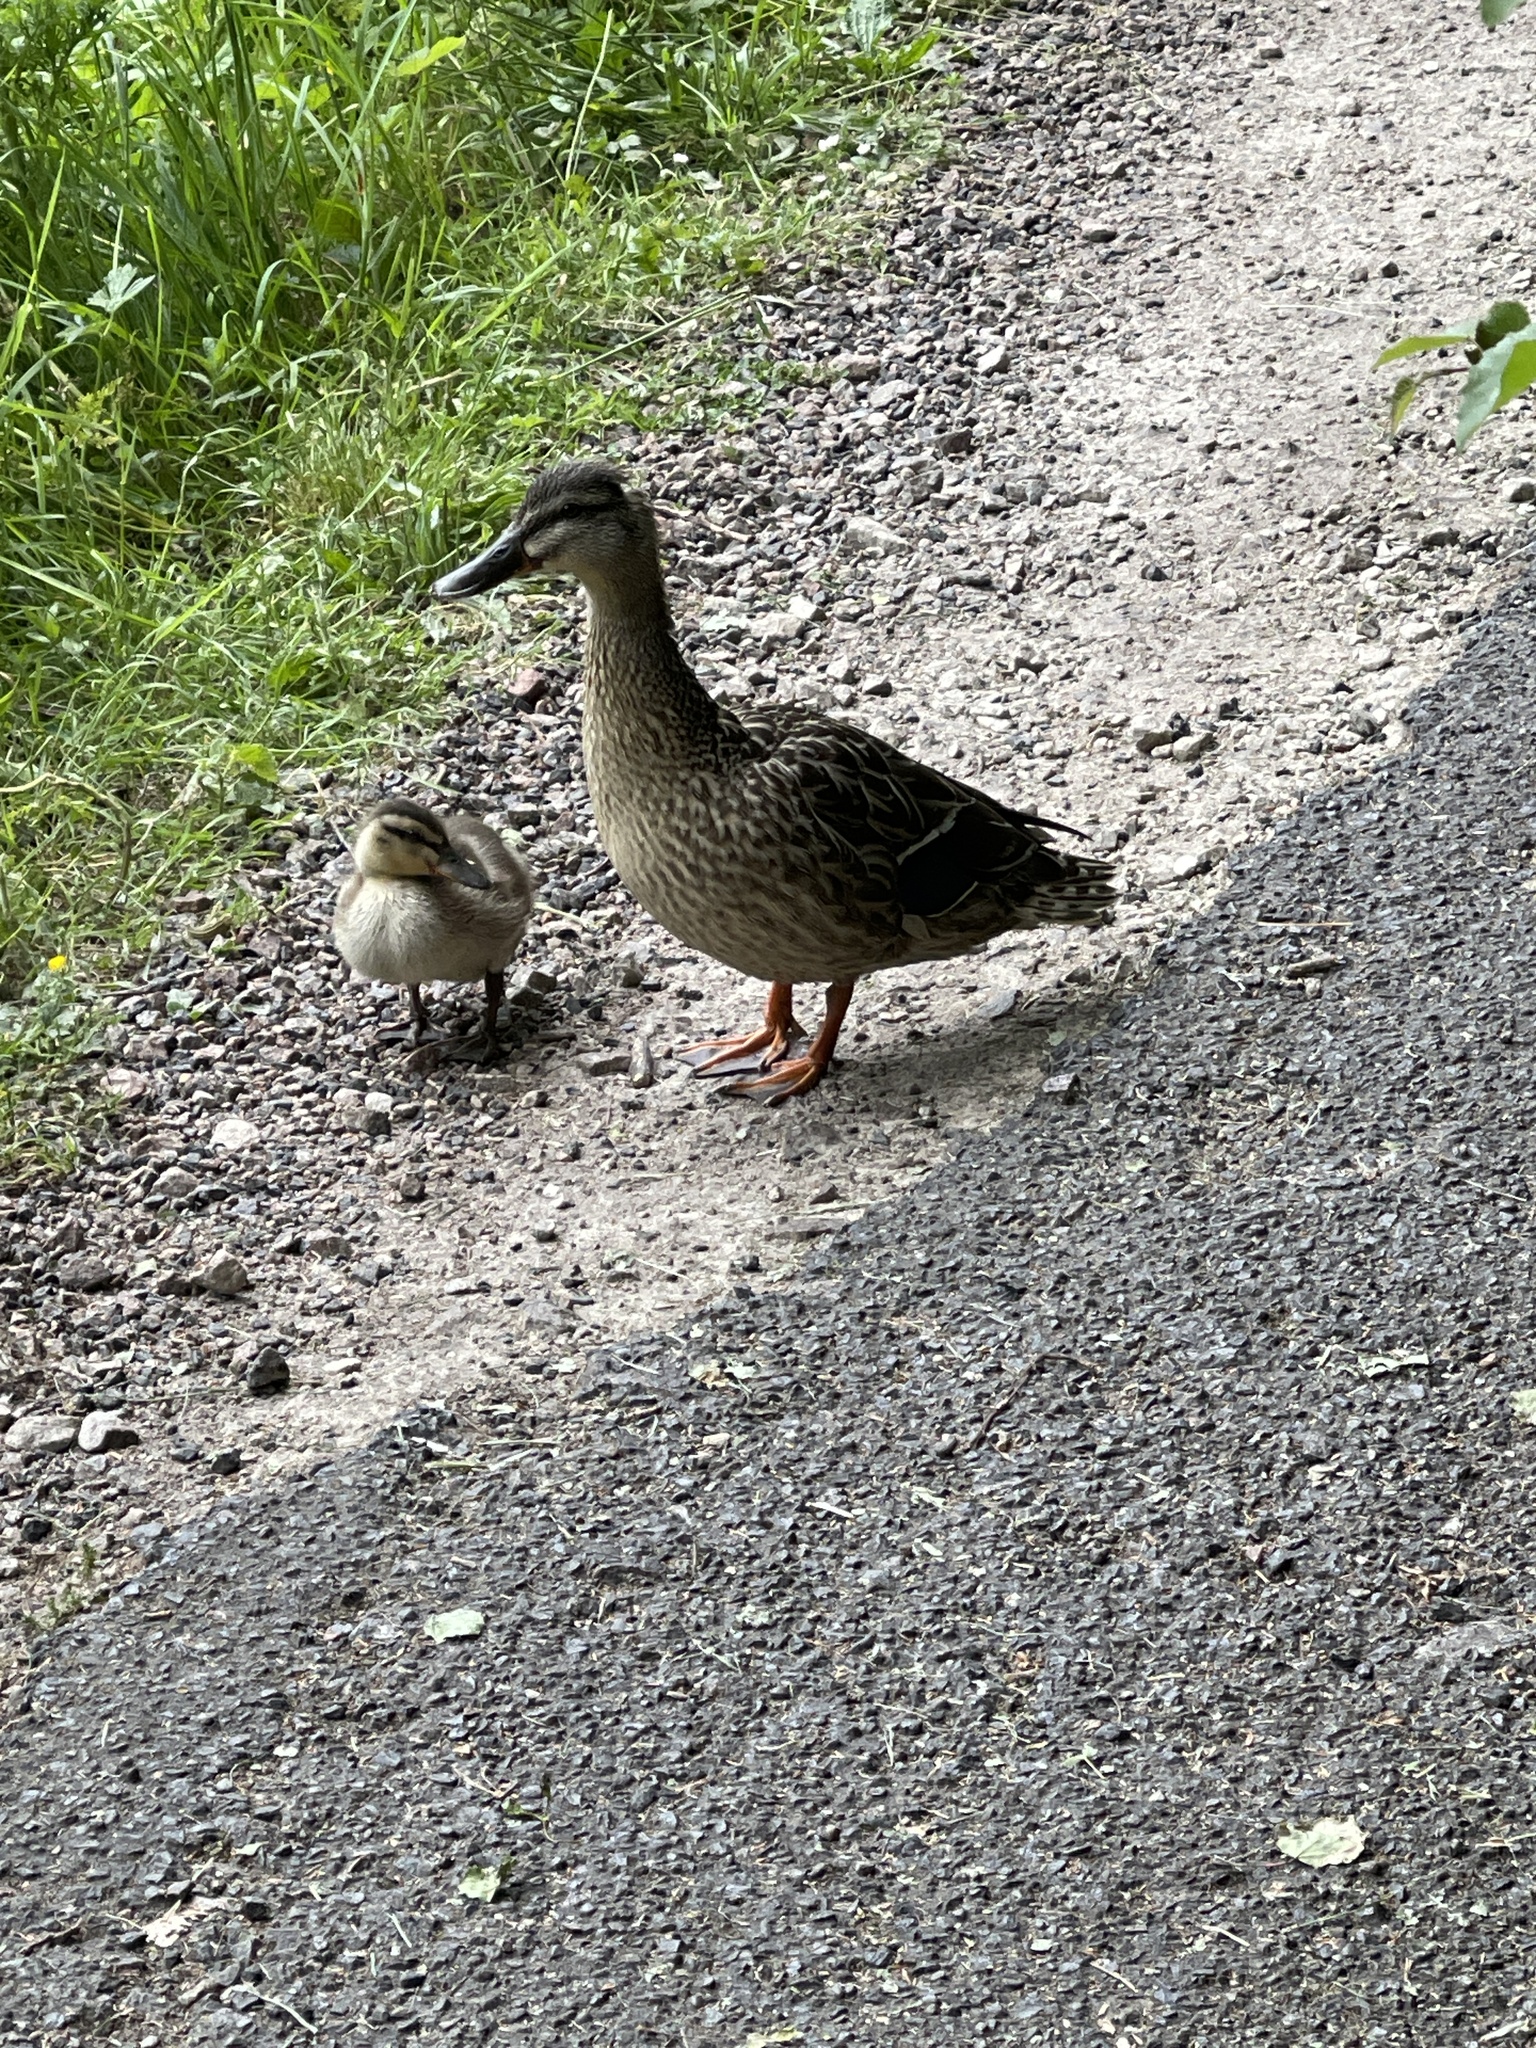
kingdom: Animalia
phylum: Chordata
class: Aves
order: Anseriformes
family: Anatidae
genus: Anas
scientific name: Anas platyrhynchos
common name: Mallard
